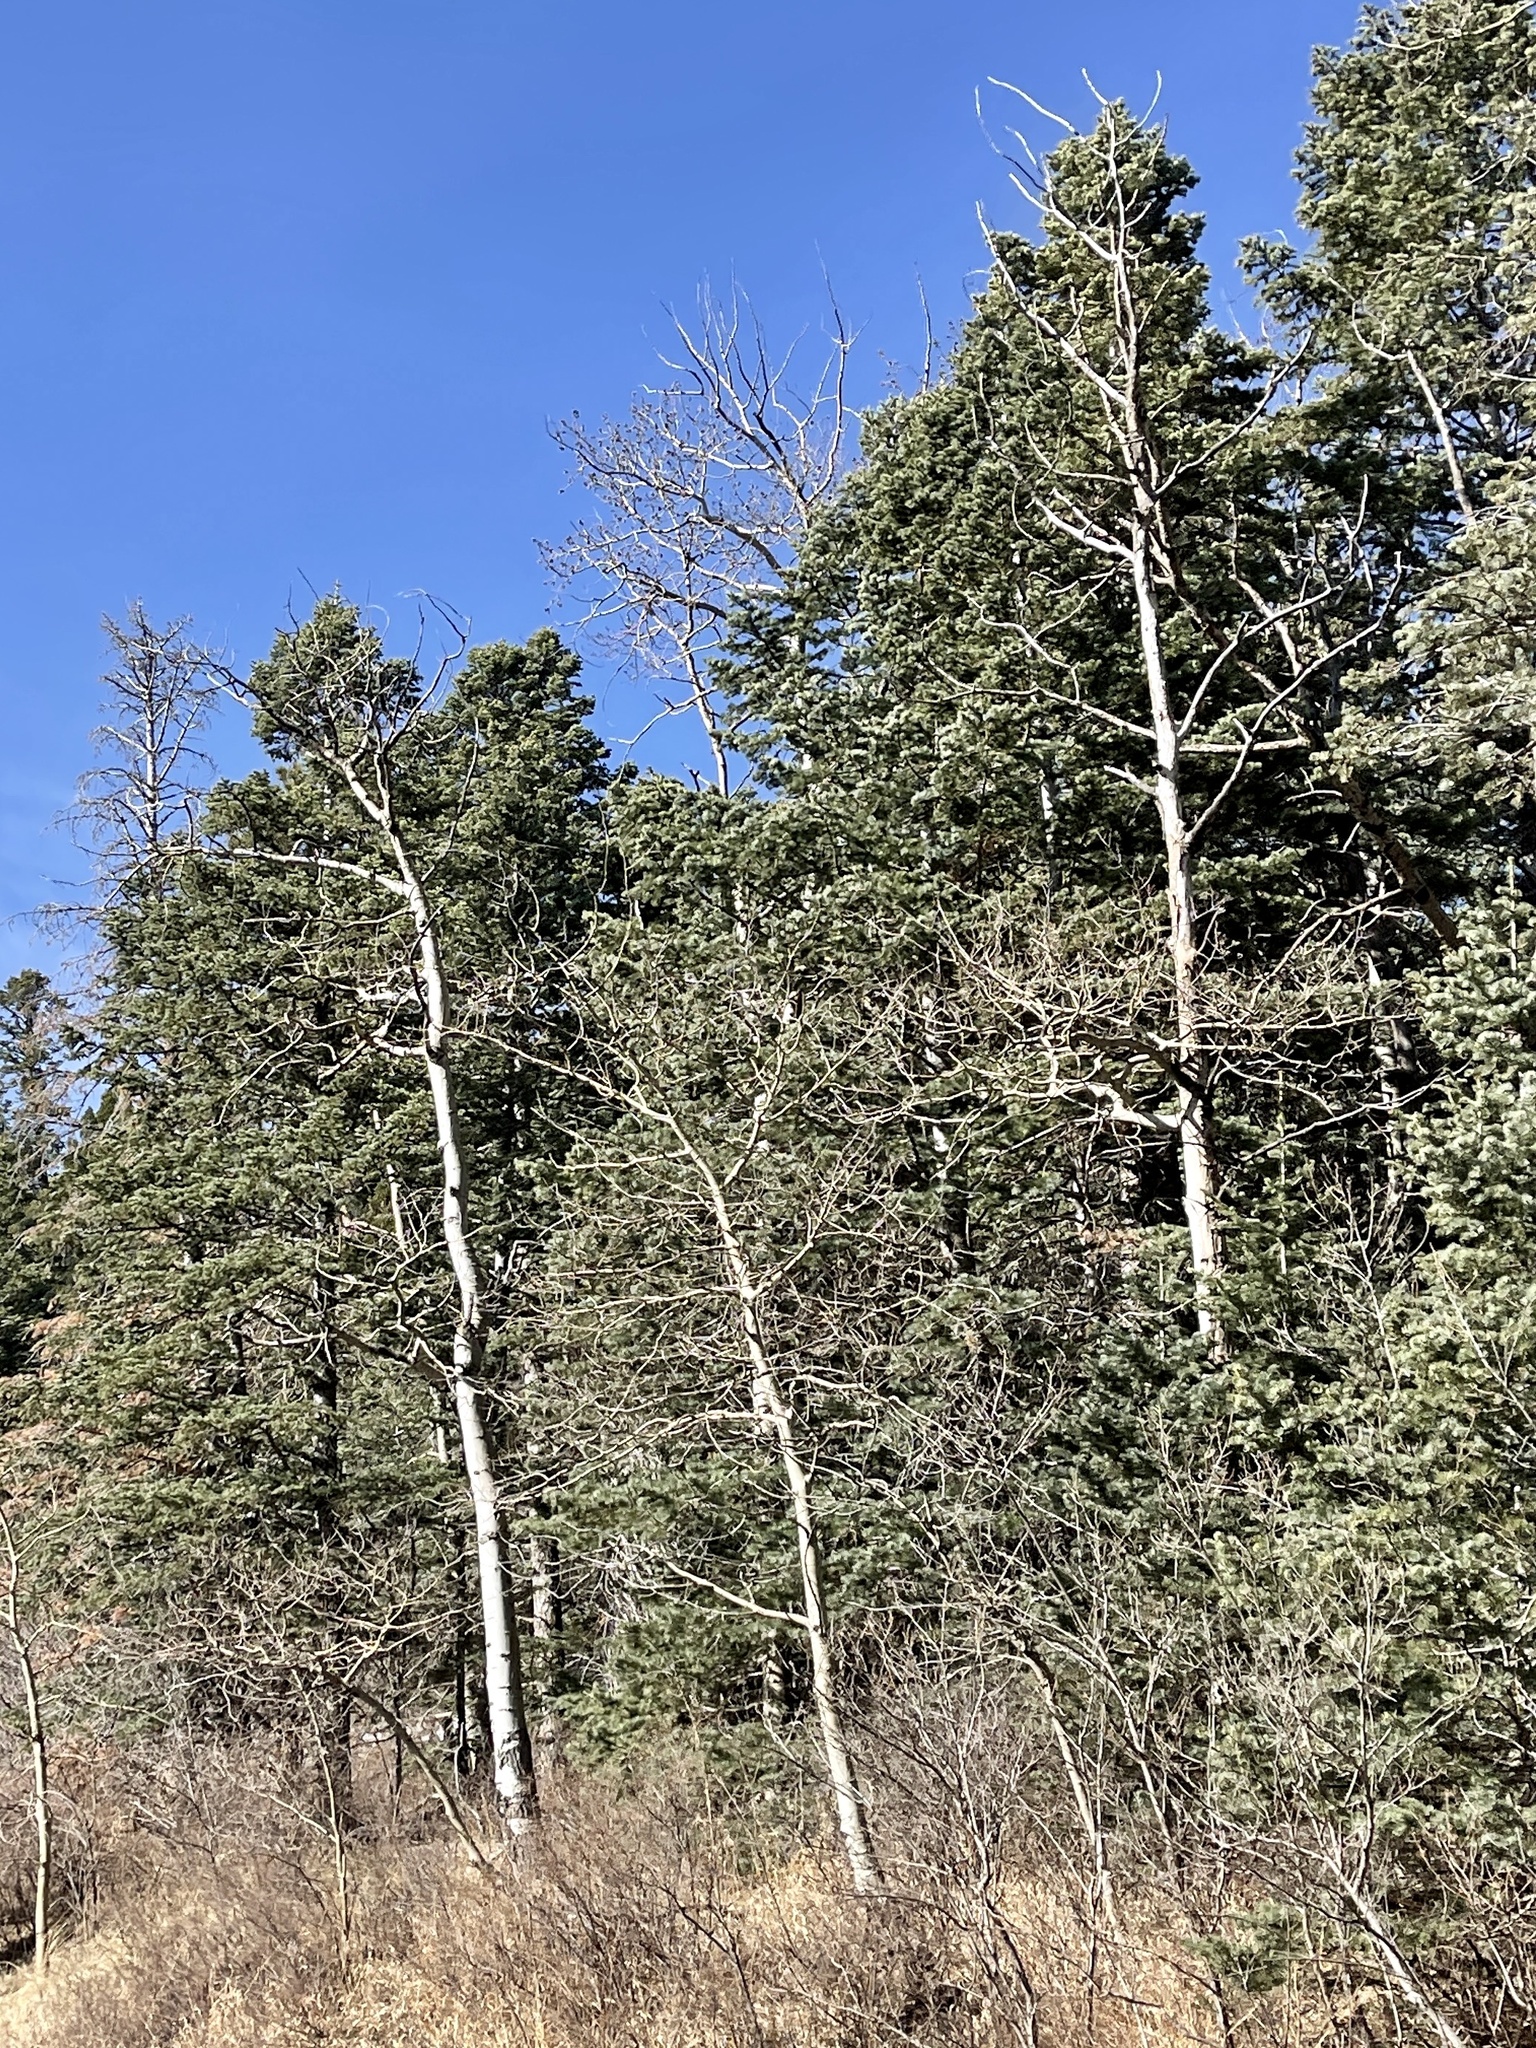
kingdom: Plantae
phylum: Tracheophyta
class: Magnoliopsida
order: Malpighiales
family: Salicaceae
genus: Populus
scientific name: Populus tremuloides
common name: Quaking aspen
